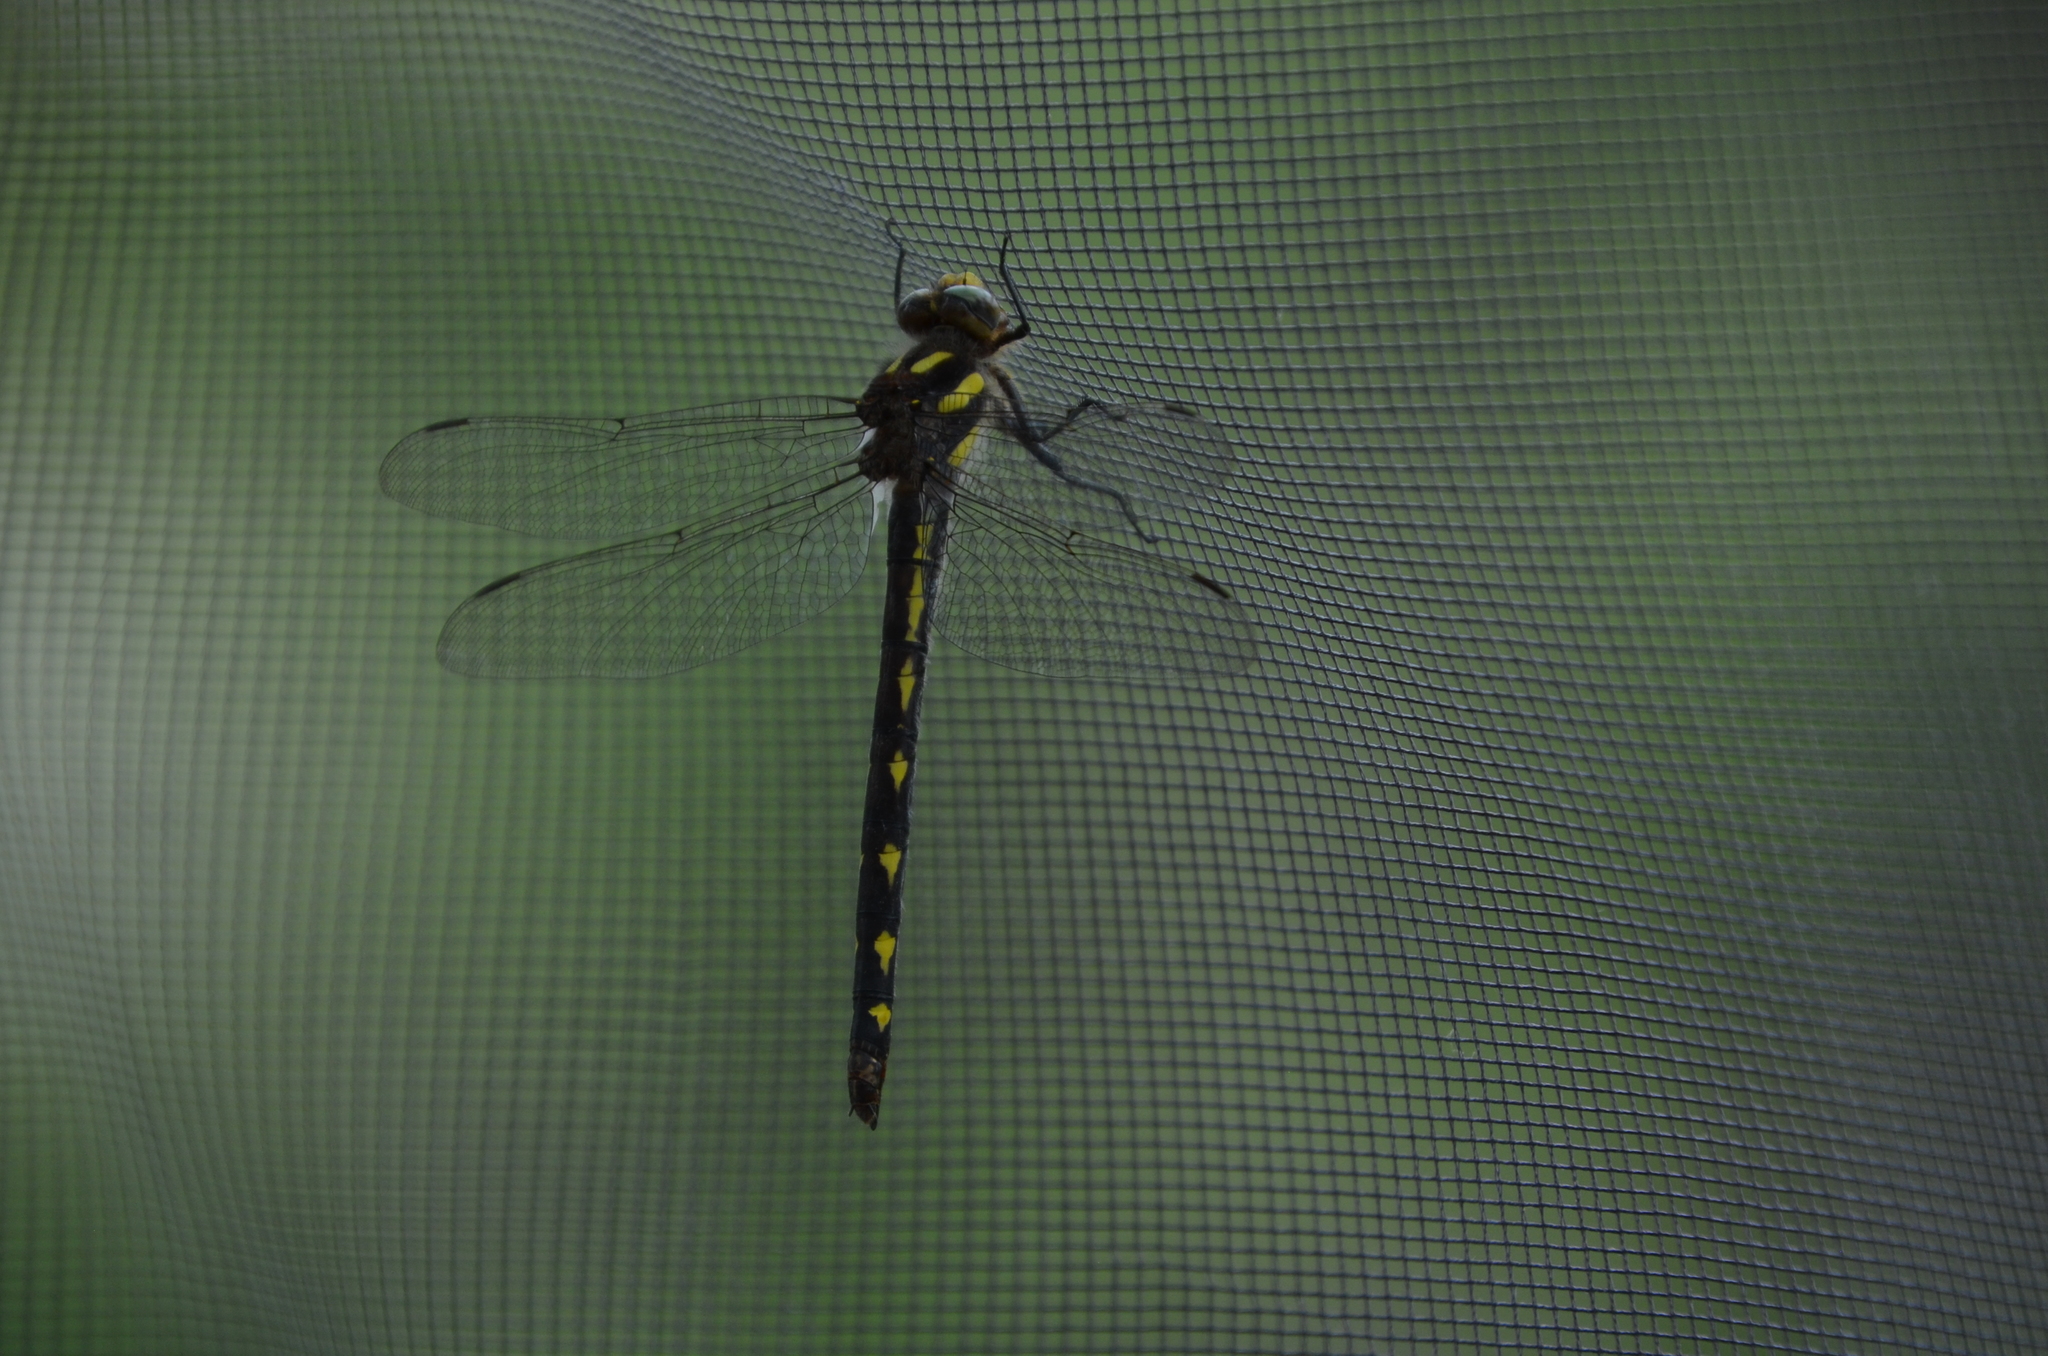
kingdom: Animalia
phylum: Arthropoda
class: Insecta
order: Odonata
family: Cordulegastridae
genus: Cordulegaster
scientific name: Cordulegaster diastatops
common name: Delta-spotted spiketail
